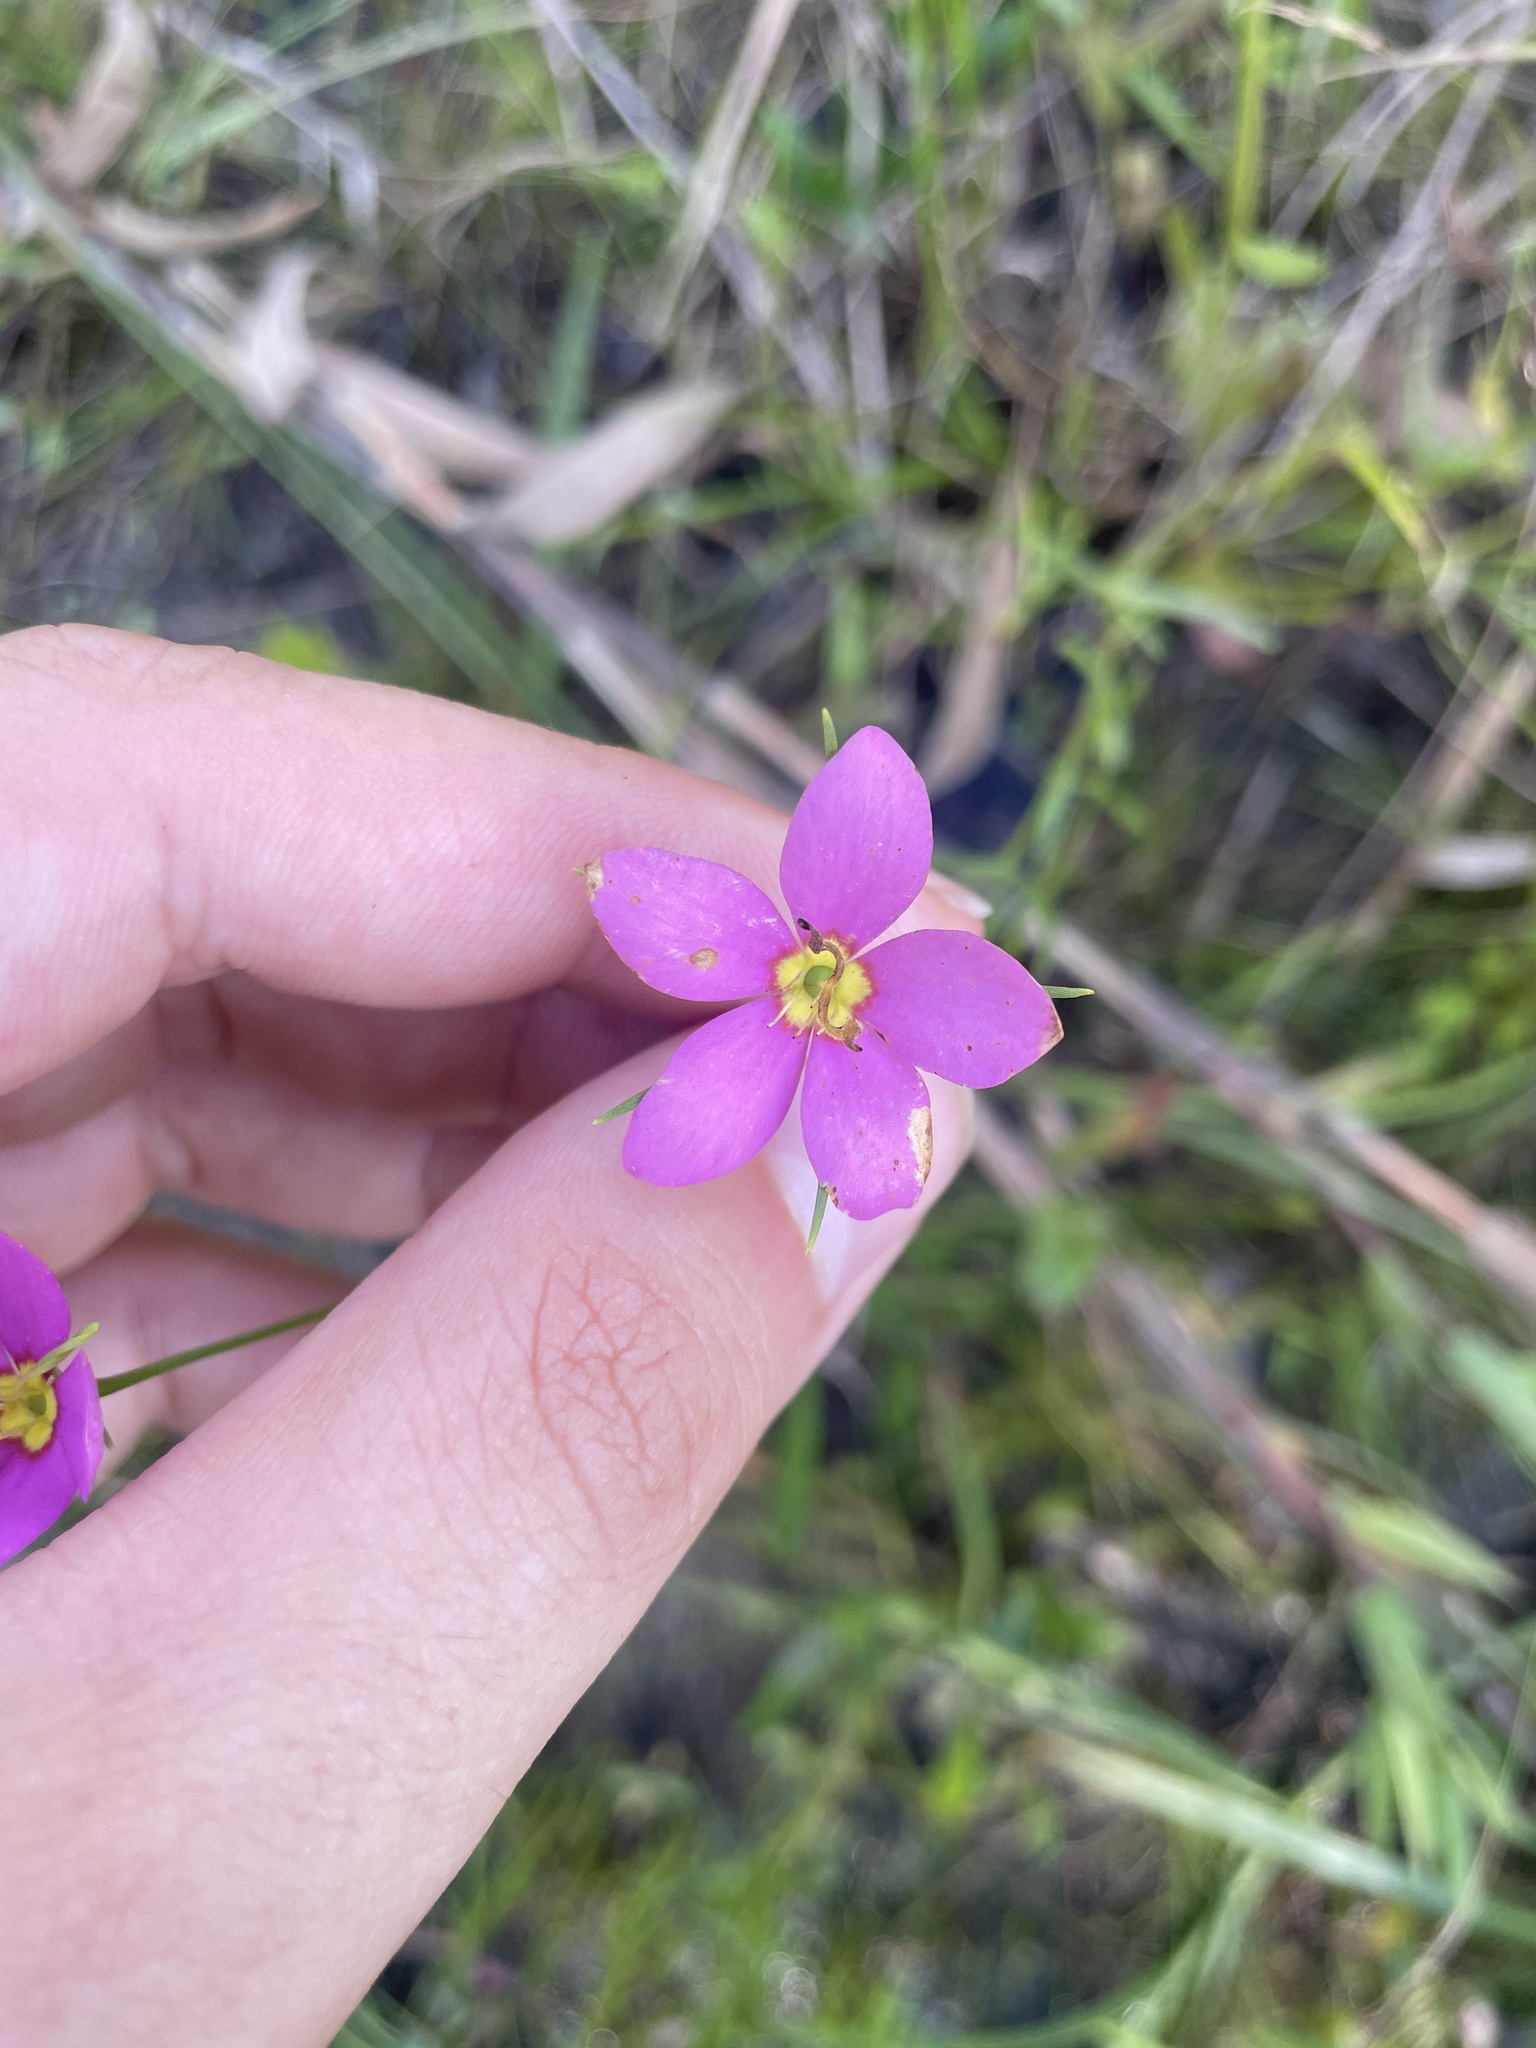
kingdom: Plantae
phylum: Tracheophyta
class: Magnoliopsida
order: Gentianales
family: Gentianaceae
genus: Sabatia
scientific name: Sabatia campanulata
